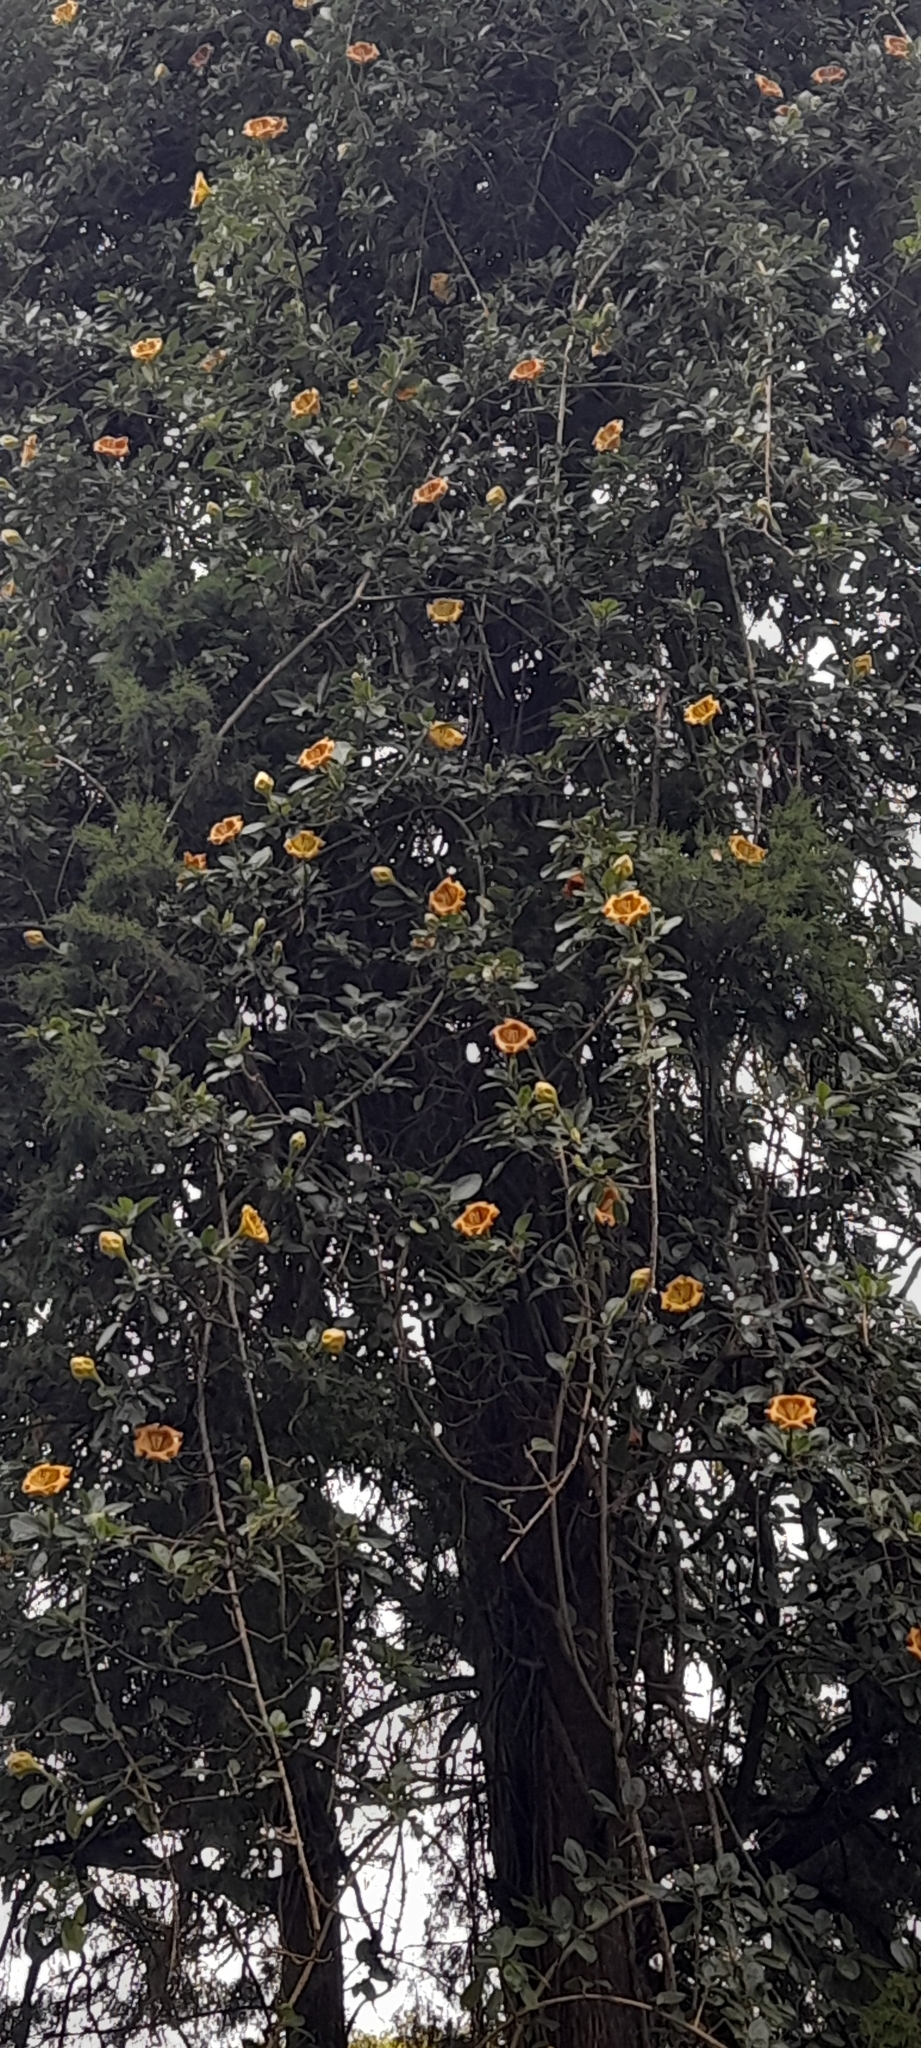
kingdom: Plantae
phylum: Tracheophyta
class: Magnoliopsida
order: Solanales
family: Solanaceae
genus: Solandra
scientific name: Solandra maxima
